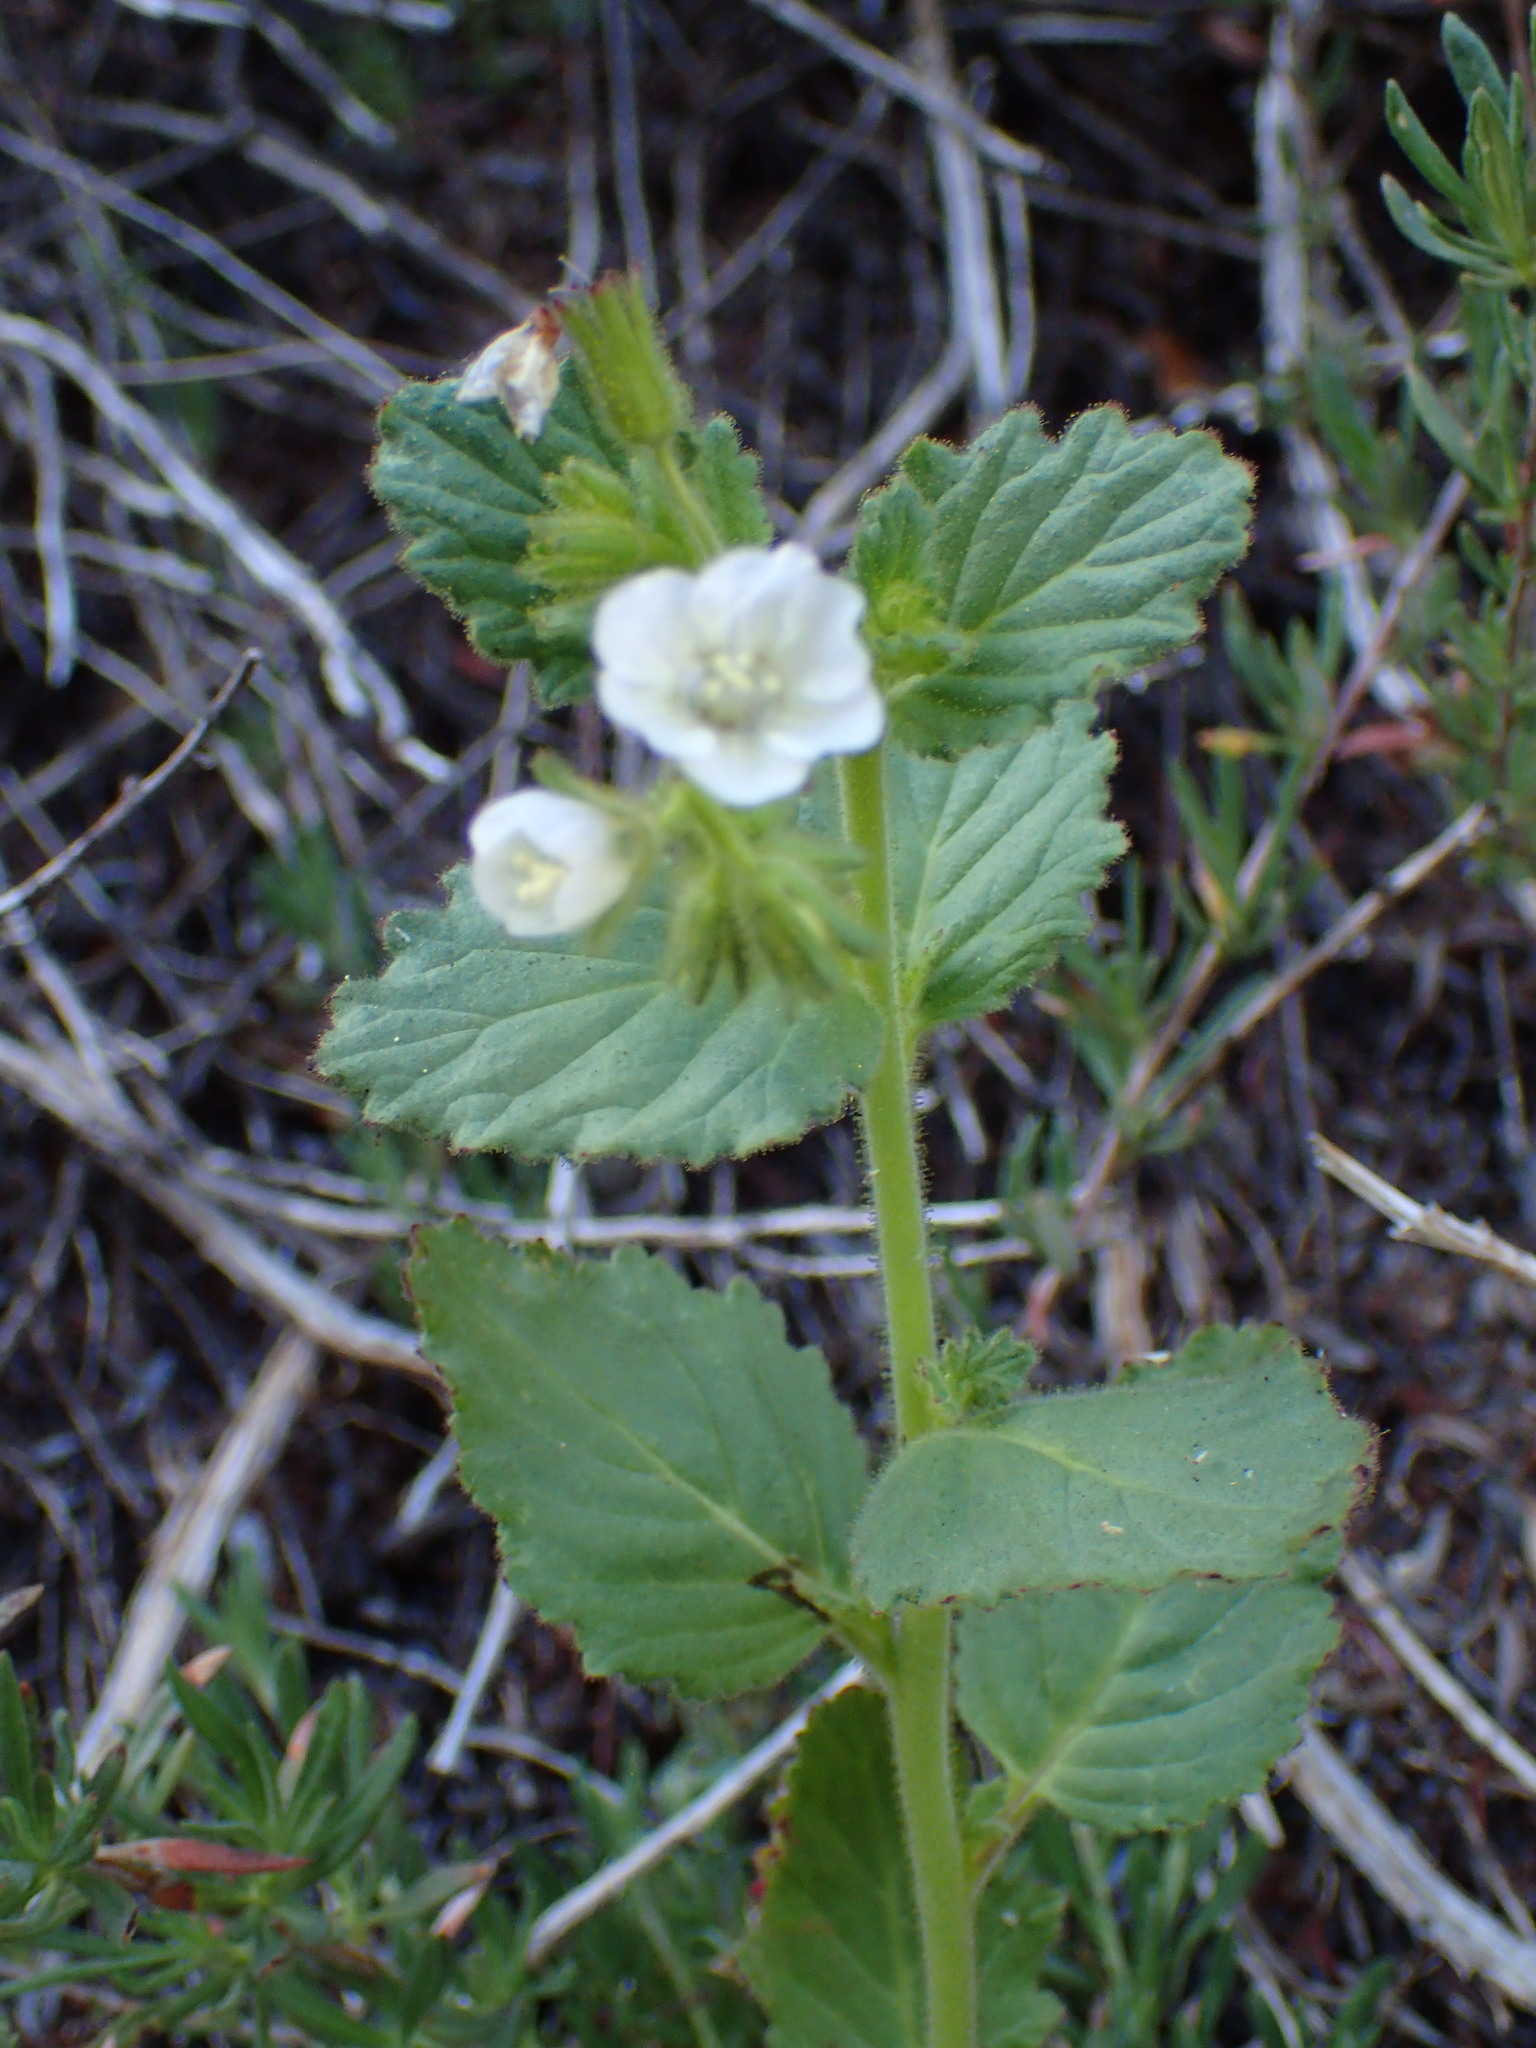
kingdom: Plantae
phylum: Tracheophyta
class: Magnoliopsida
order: Boraginales
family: Hydrophyllaceae
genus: Phacelia
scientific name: Phacelia viscida
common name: Sticky phacelia
